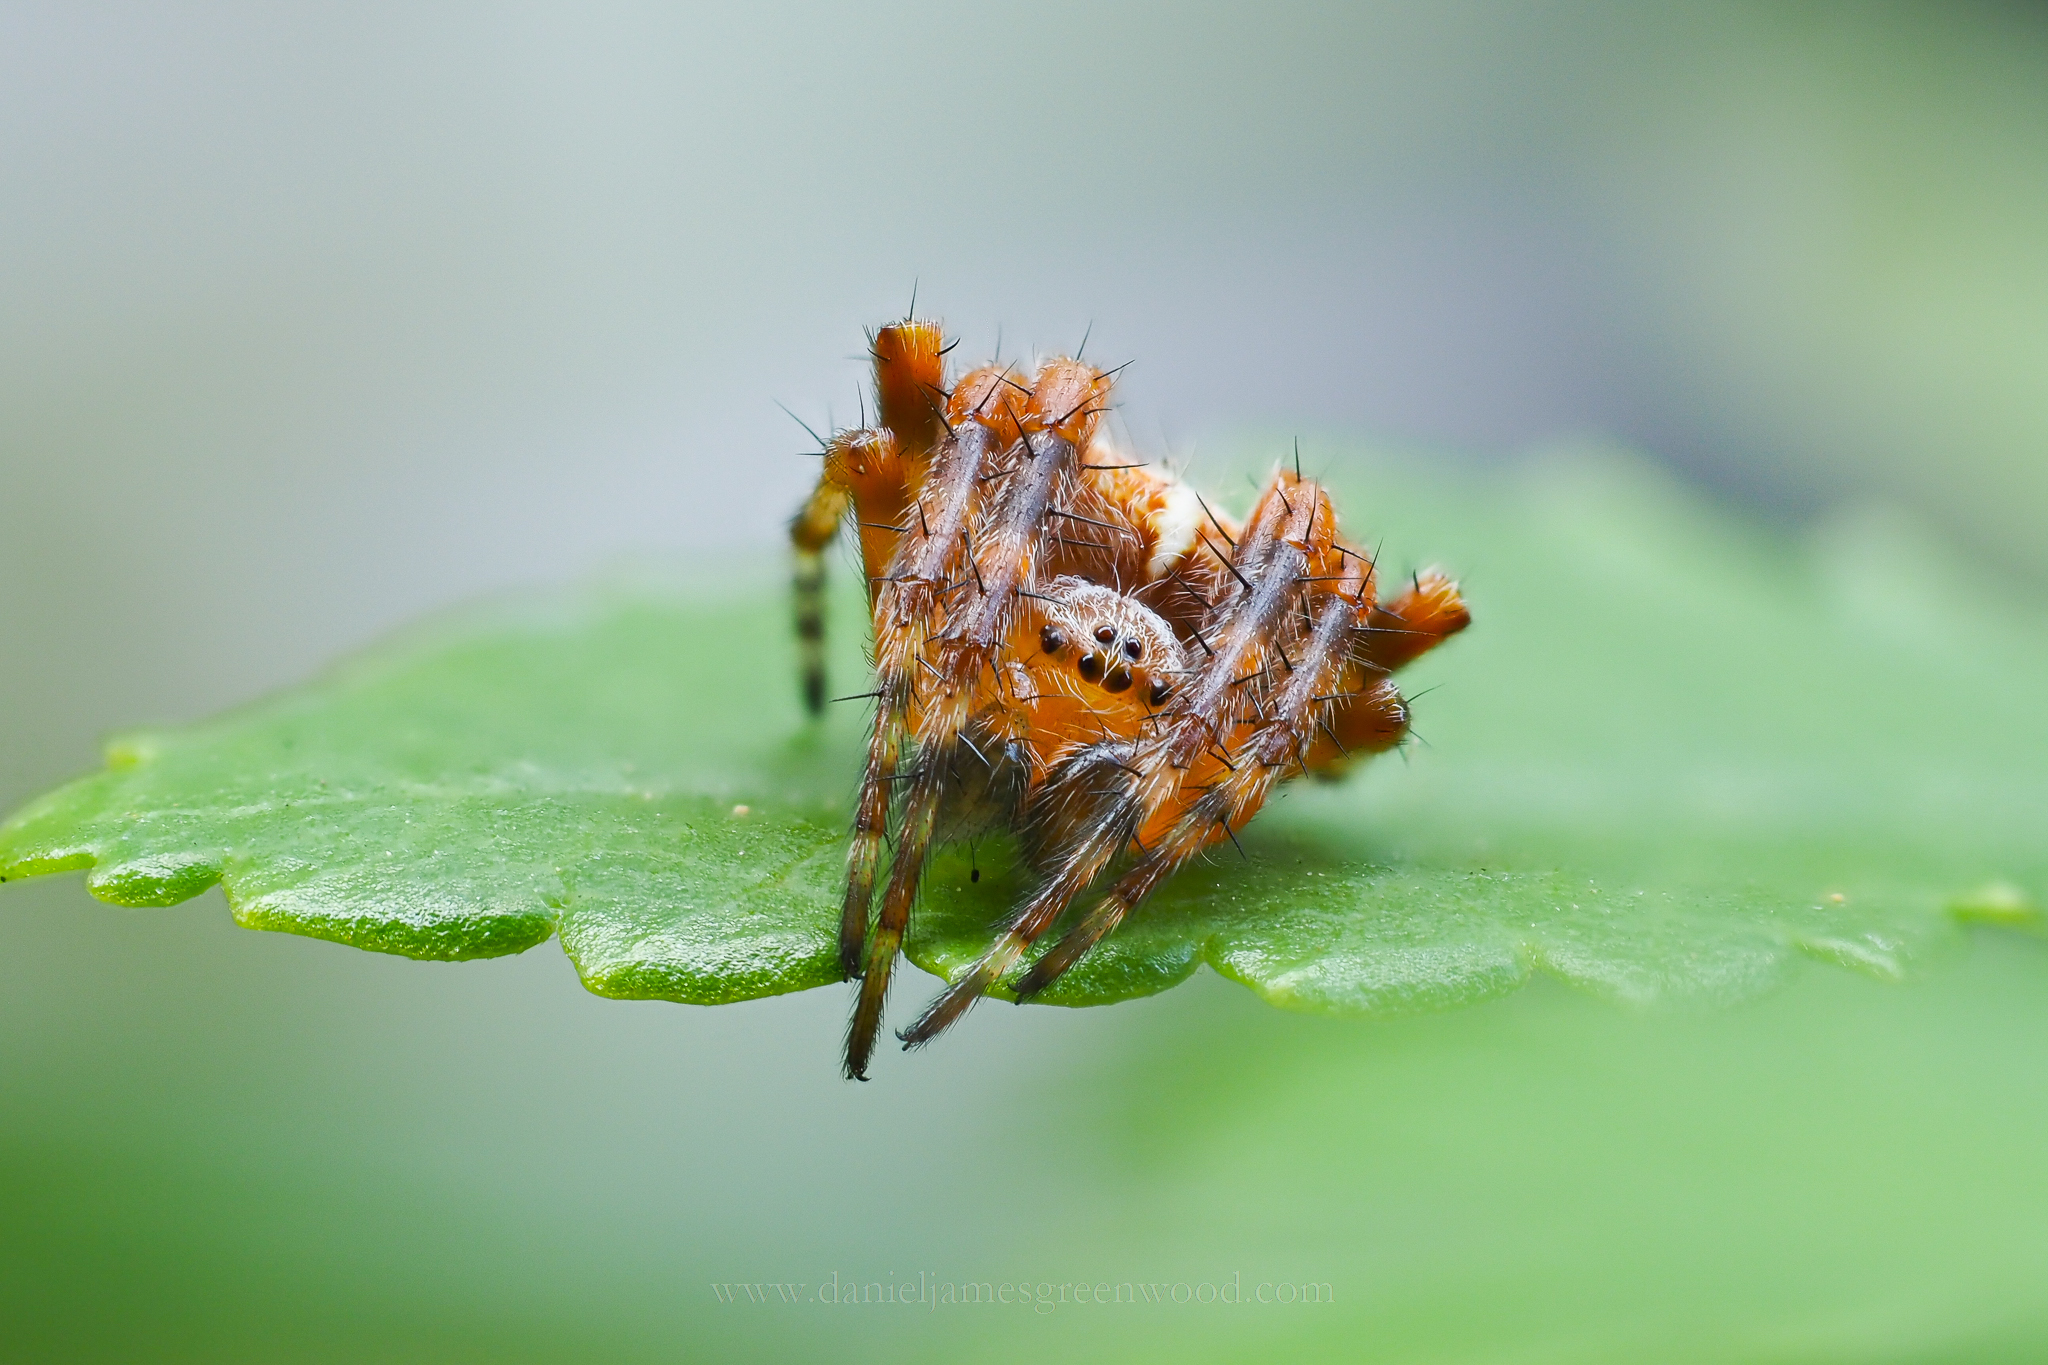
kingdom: Animalia
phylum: Arthropoda
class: Arachnida
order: Araneae
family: Araneidae
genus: Araneus
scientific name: Araneus diadematus
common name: Cross orbweaver
